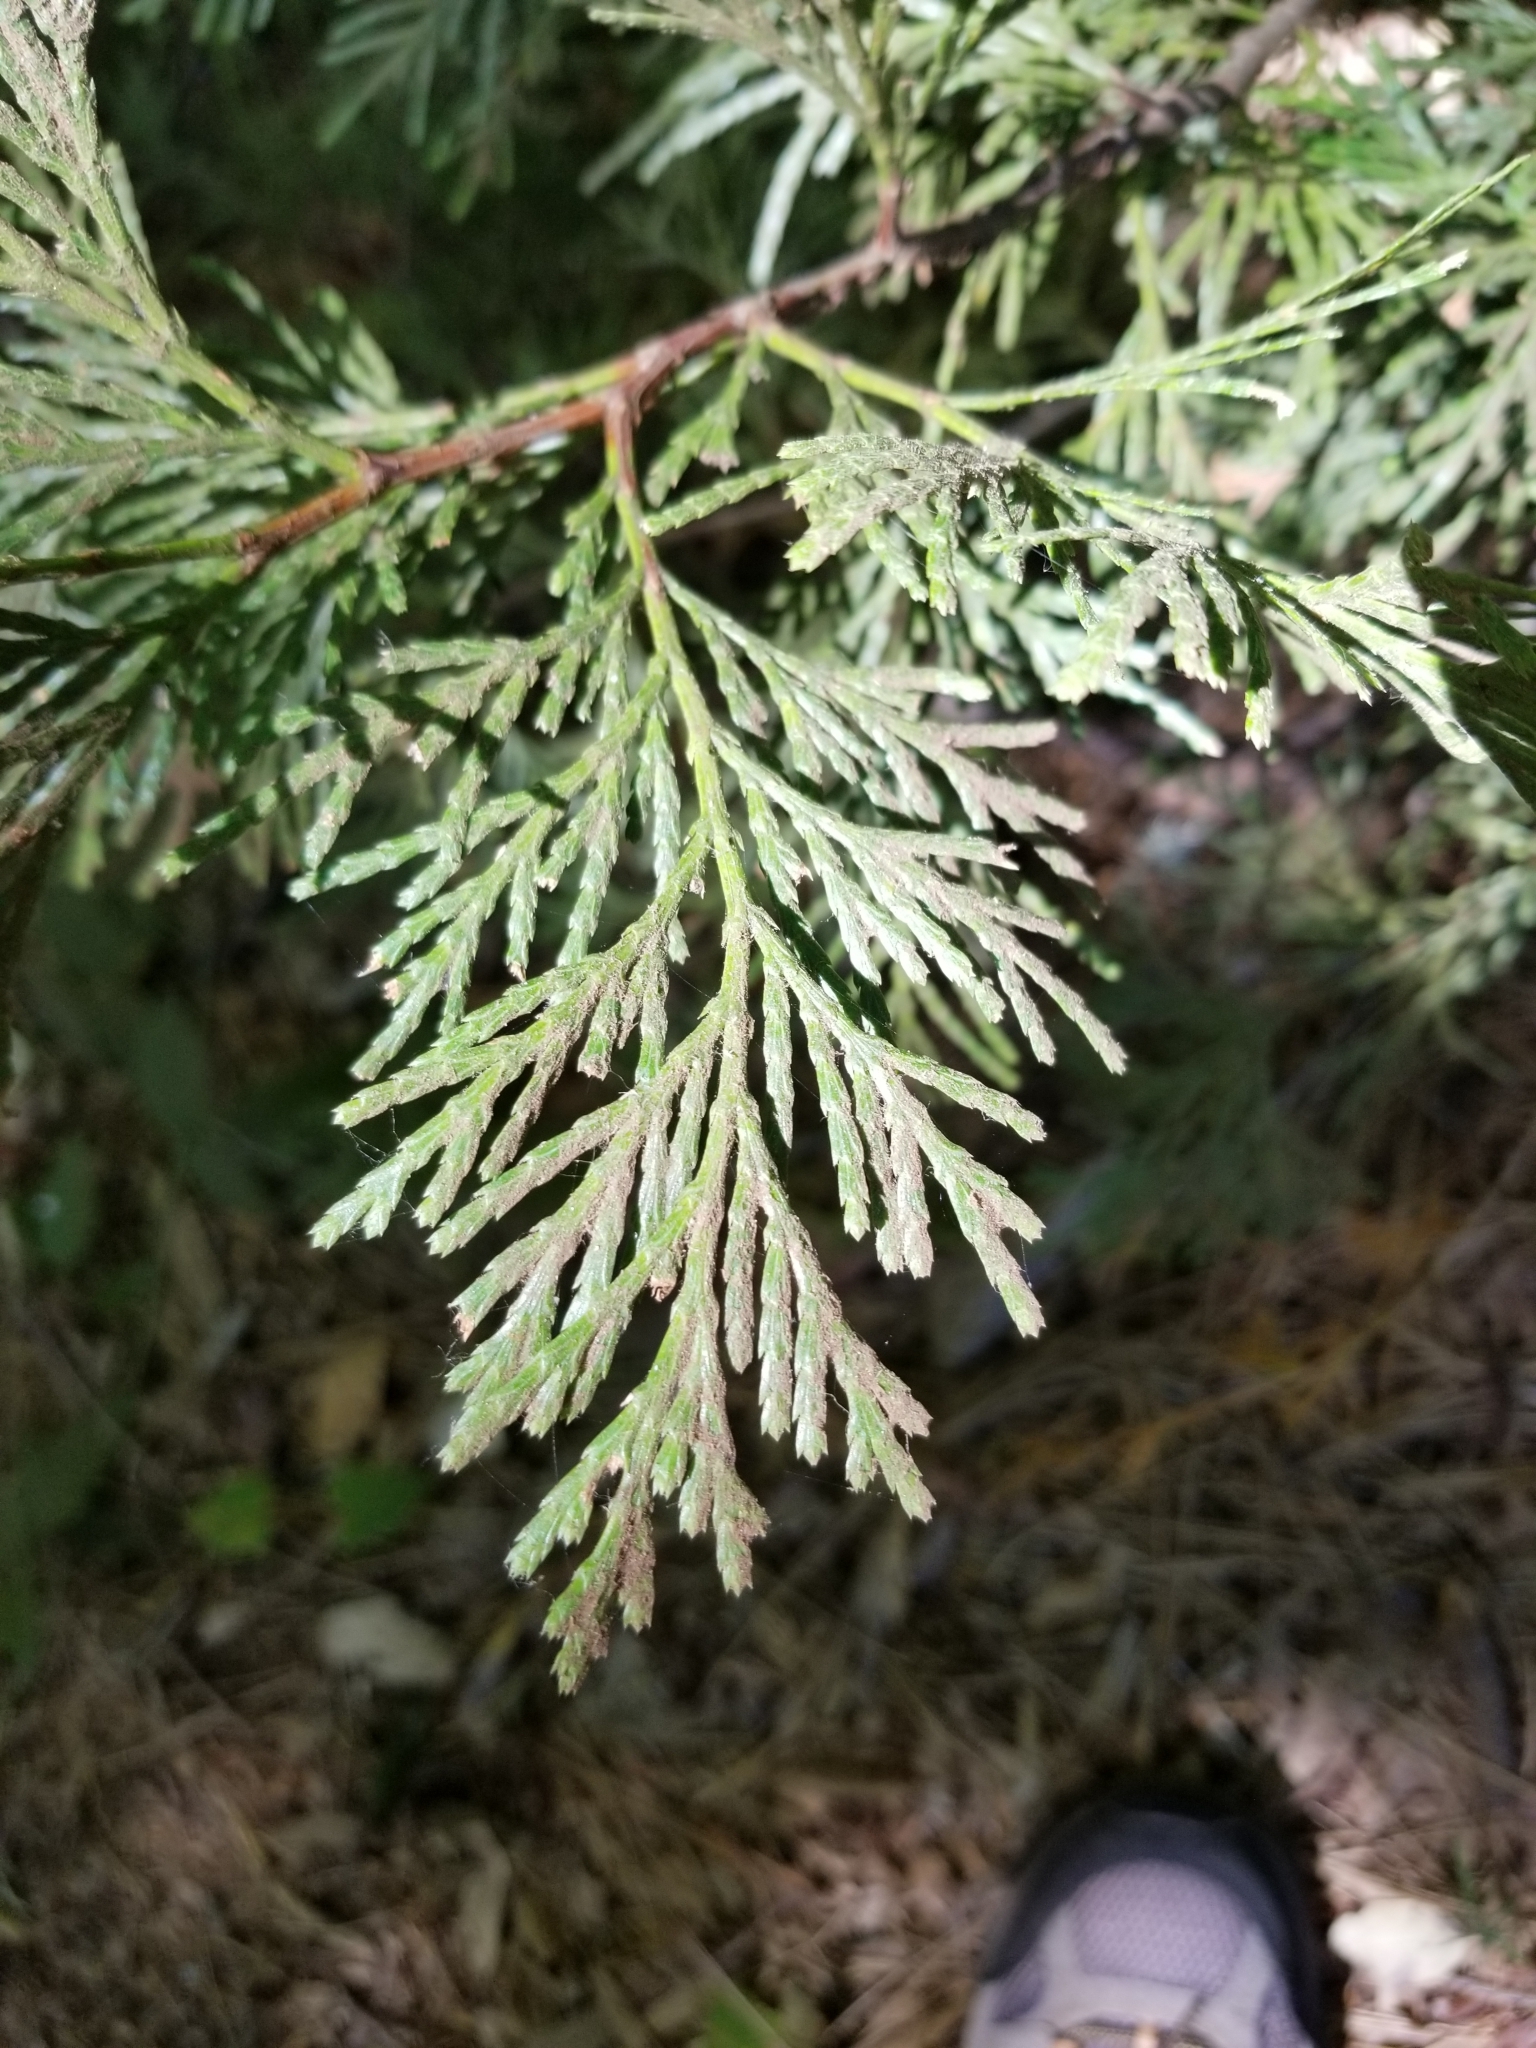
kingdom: Plantae
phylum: Tracheophyta
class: Pinopsida
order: Pinales
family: Cupressaceae
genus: Calocedrus
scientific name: Calocedrus decurrens
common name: Californian incense-cedar
